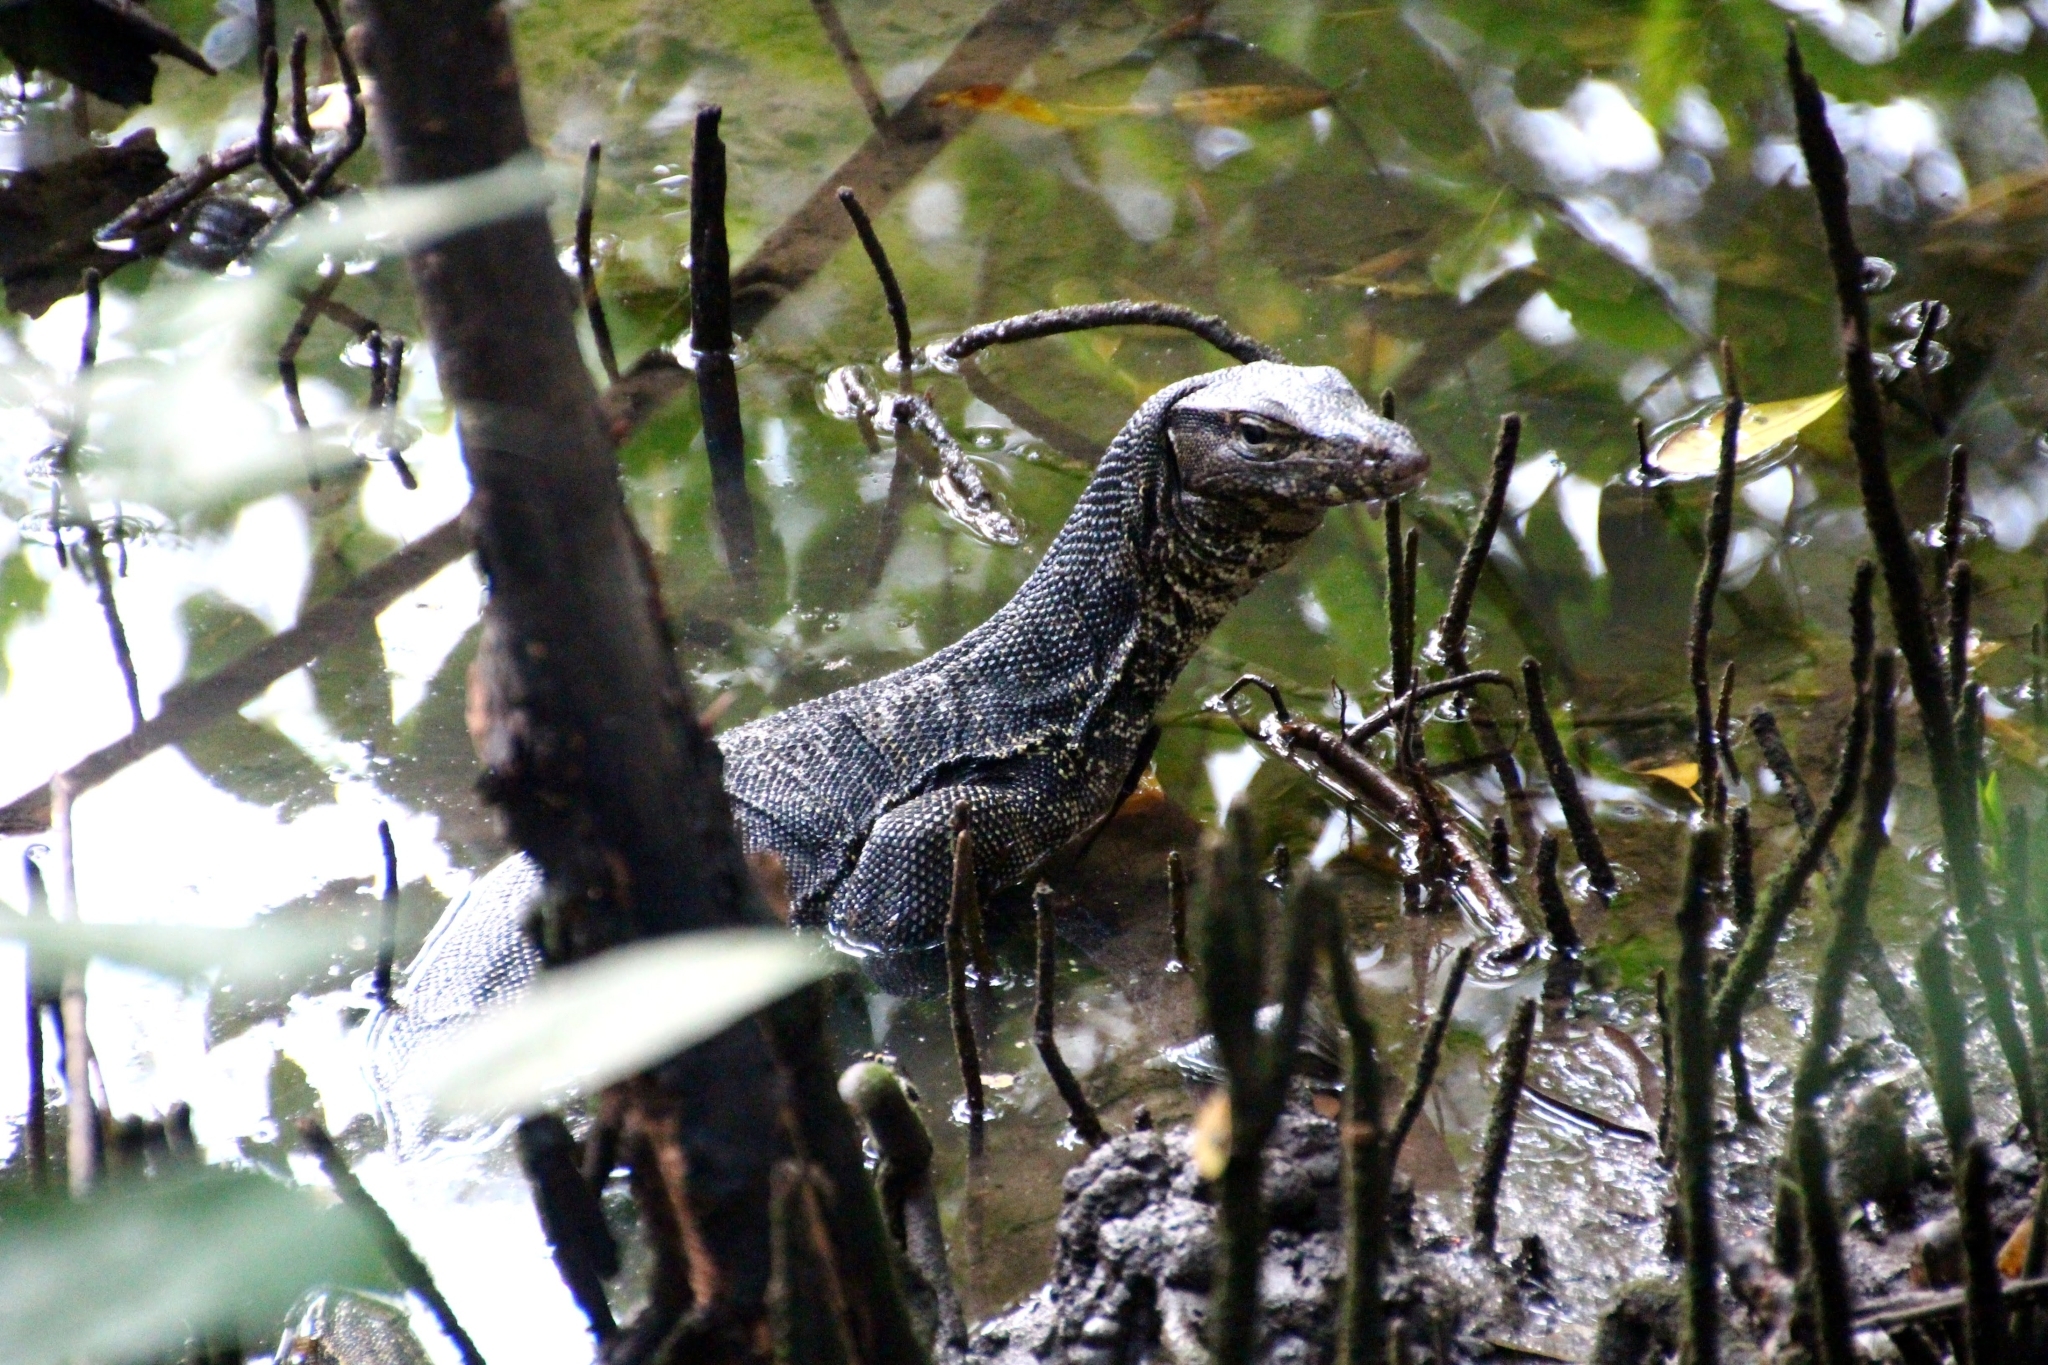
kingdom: Animalia
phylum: Chordata
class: Squamata
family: Varanidae
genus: Varanus
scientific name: Varanus salvator
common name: Common water monitor
